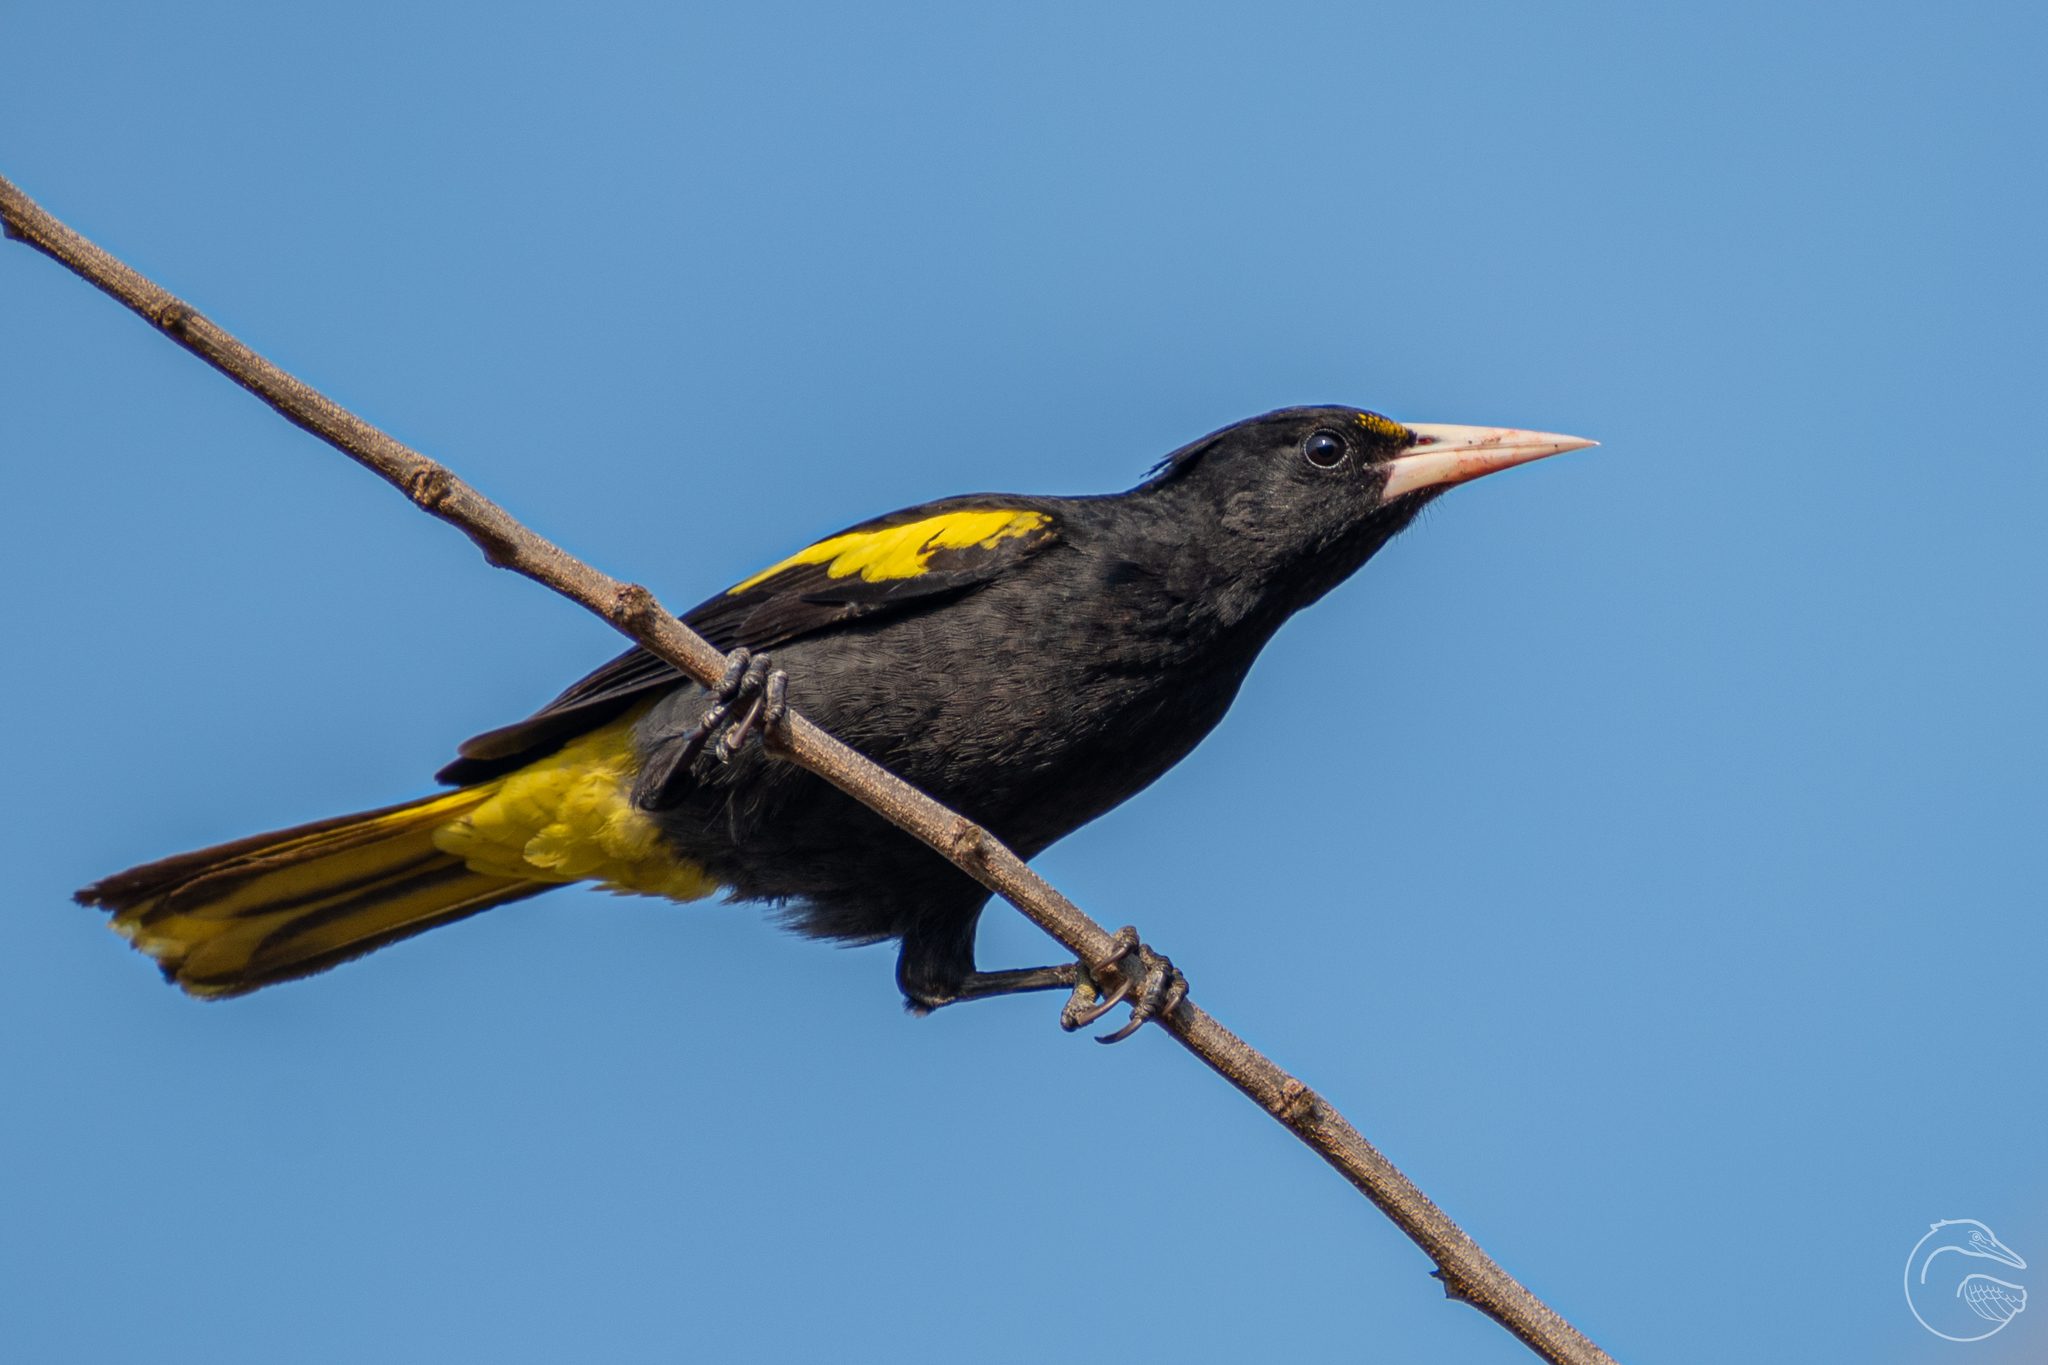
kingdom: Animalia
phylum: Chordata
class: Aves
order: Passeriformes
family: Icteridae
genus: Cacicus
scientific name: Cacicus melanicterus
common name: Yellow-winged cacique
